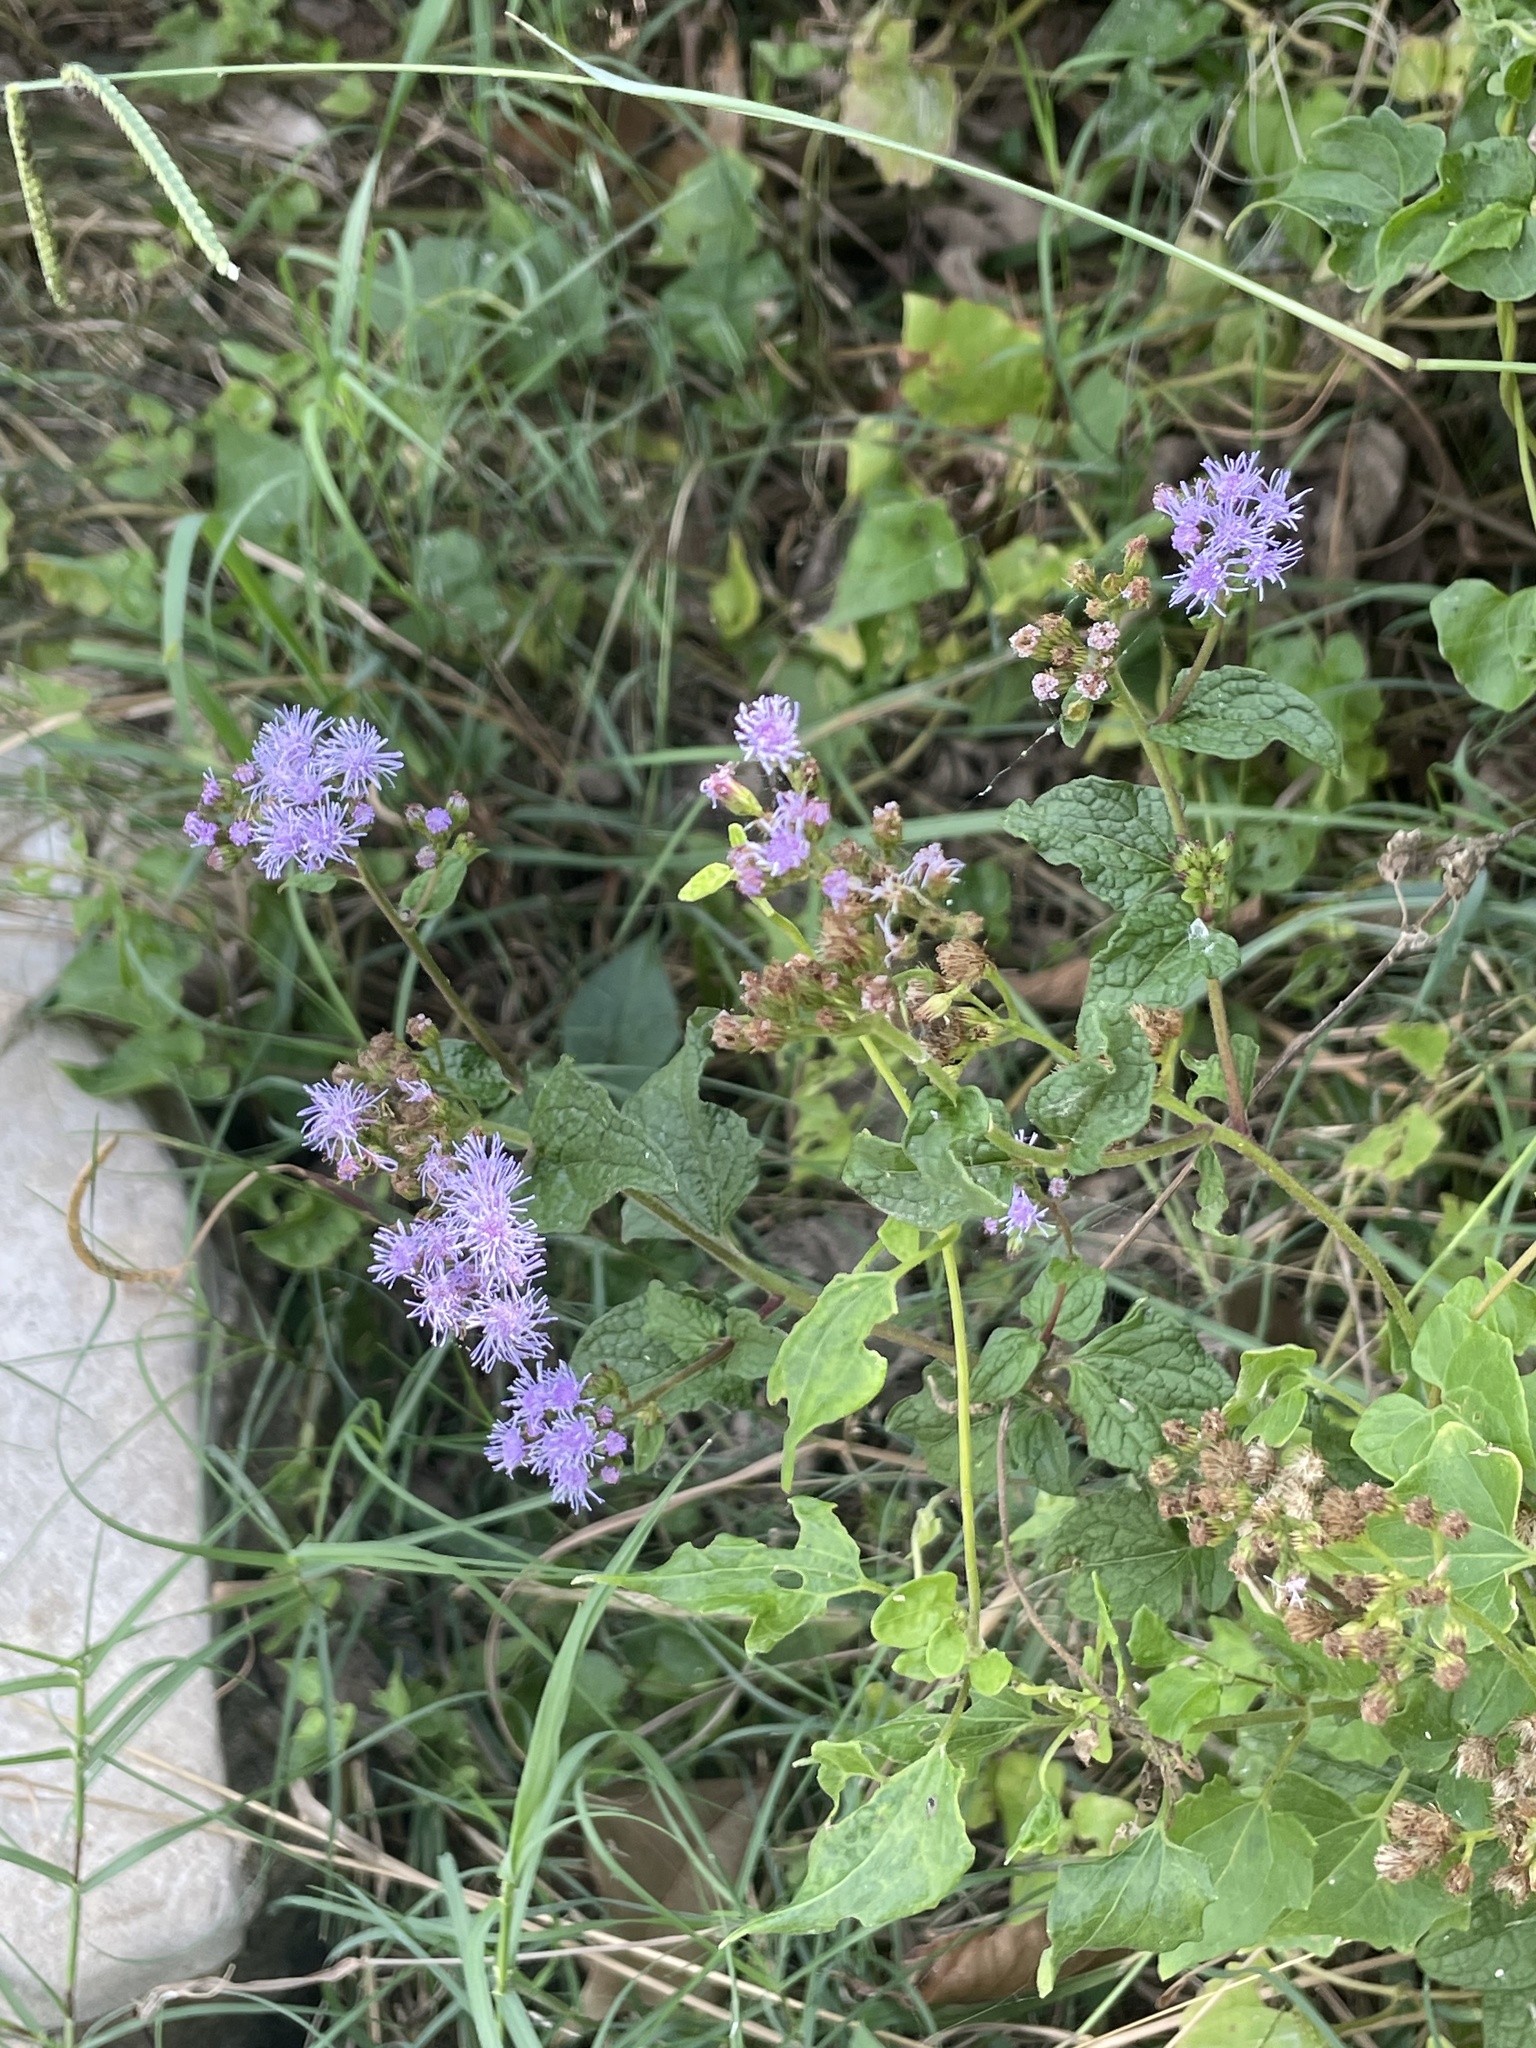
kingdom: Plantae
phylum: Tracheophyta
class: Magnoliopsida
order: Asterales
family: Asteraceae
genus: Conoclinium
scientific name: Conoclinium coelestinum
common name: Blue mistflower
